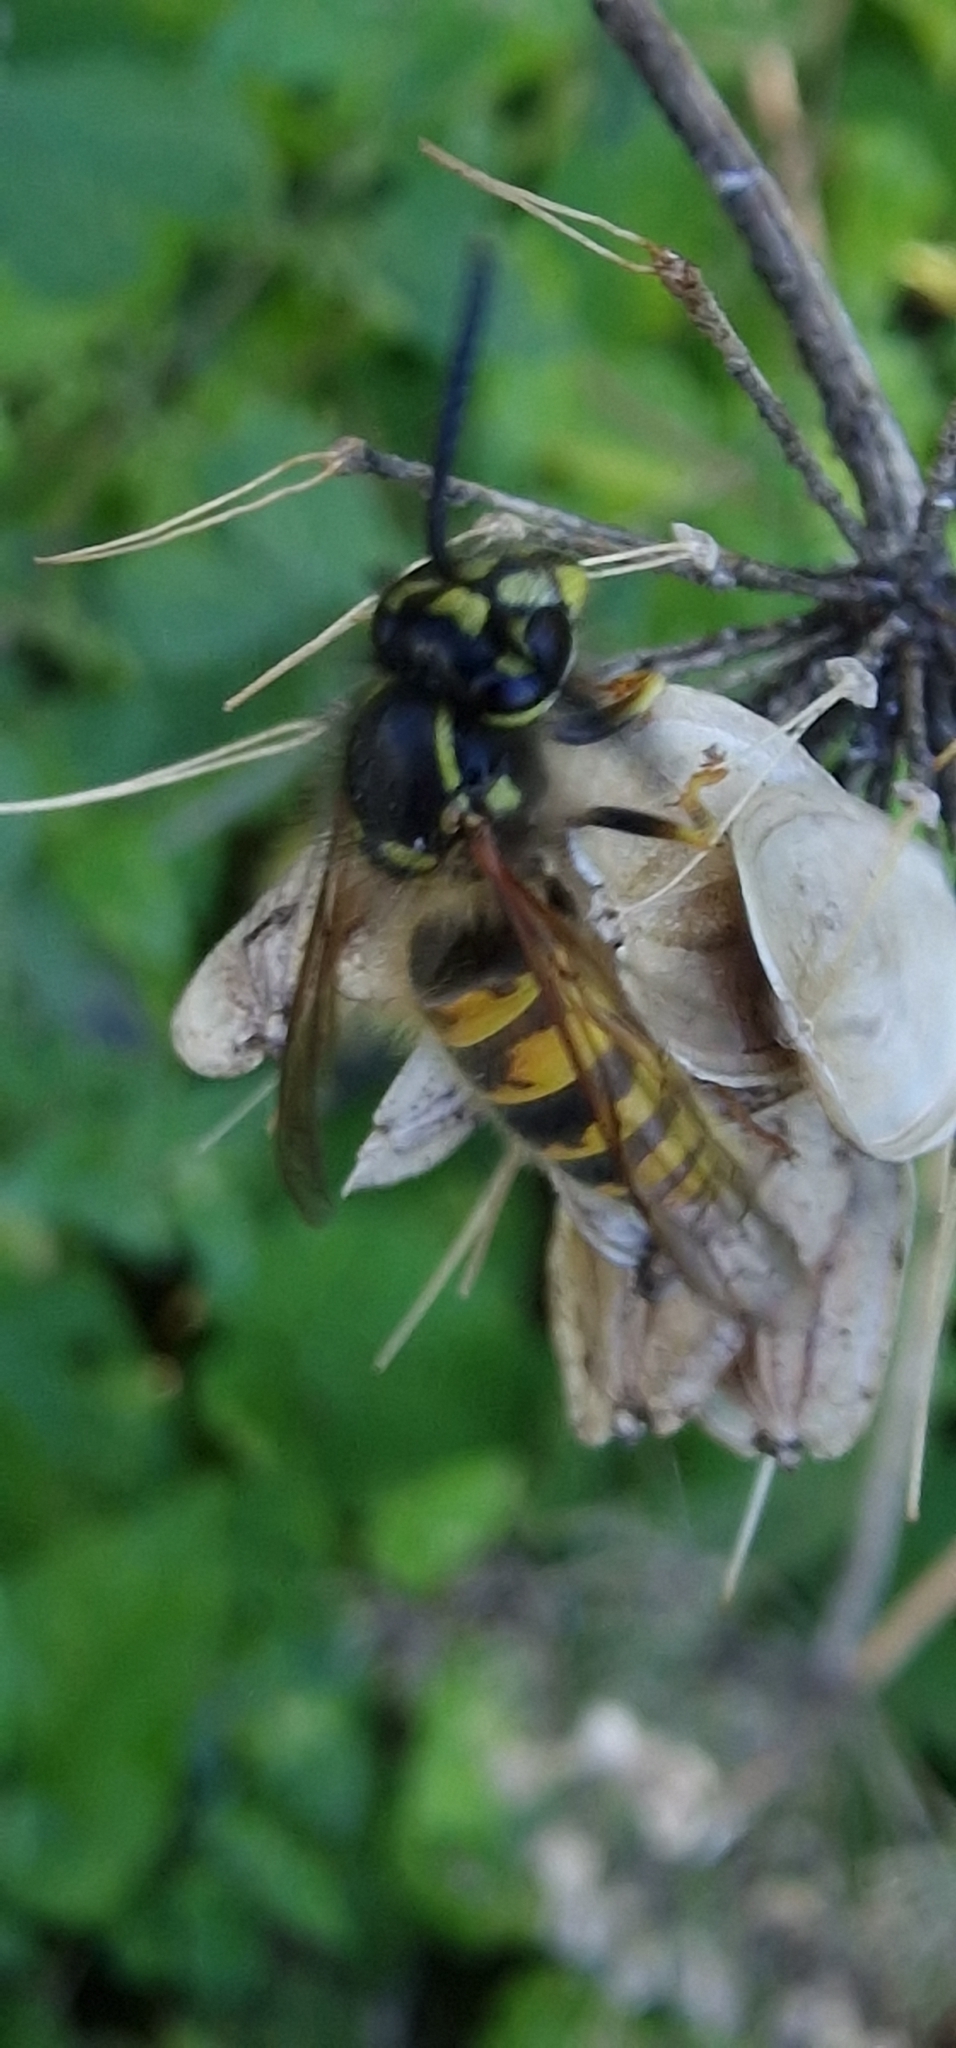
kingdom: Animalia
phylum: Arthropoda
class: Insecta
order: Hymenoptera
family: Vespidae
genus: Vespula
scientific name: Vespula vulgaris
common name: Common wasp
